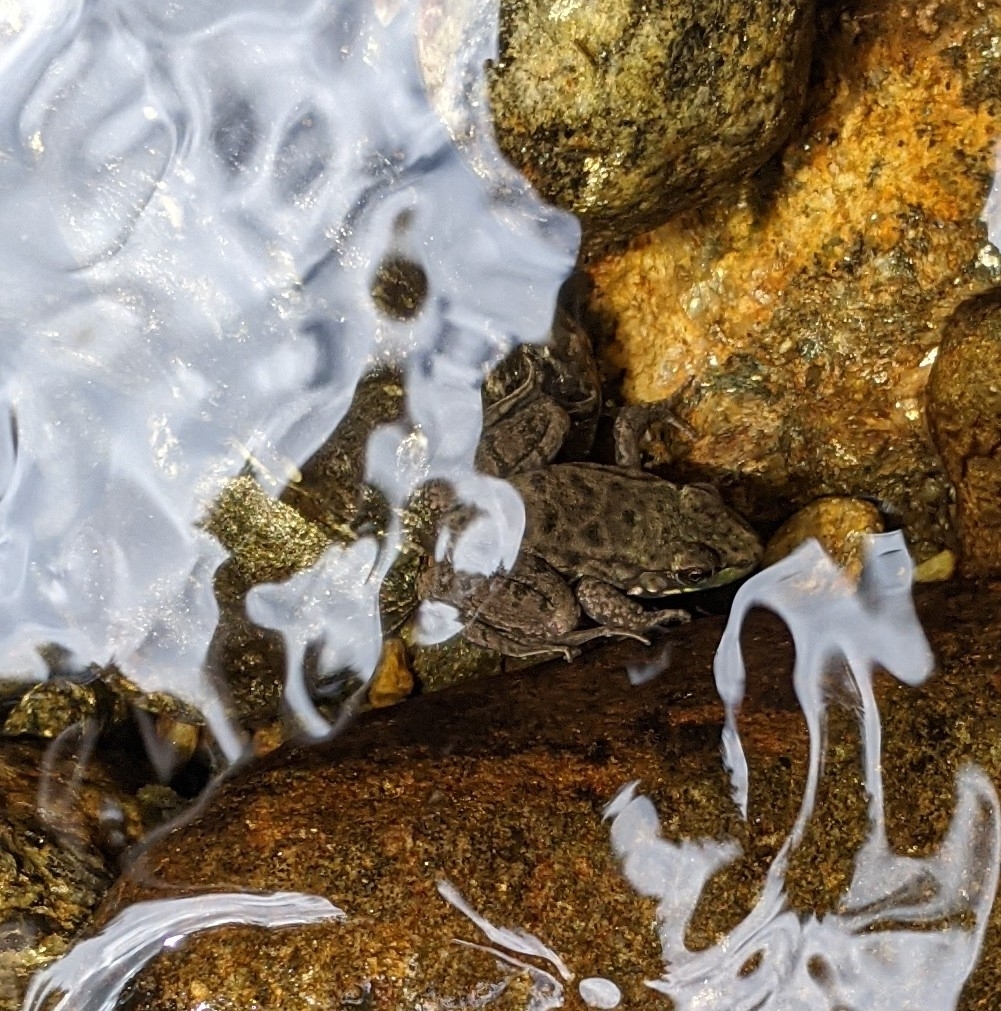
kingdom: Animalia
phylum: Chordata
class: Amphibia
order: Anura
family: Ranidae
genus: Lithobates
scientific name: Lithobates clamitans
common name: Green frog
